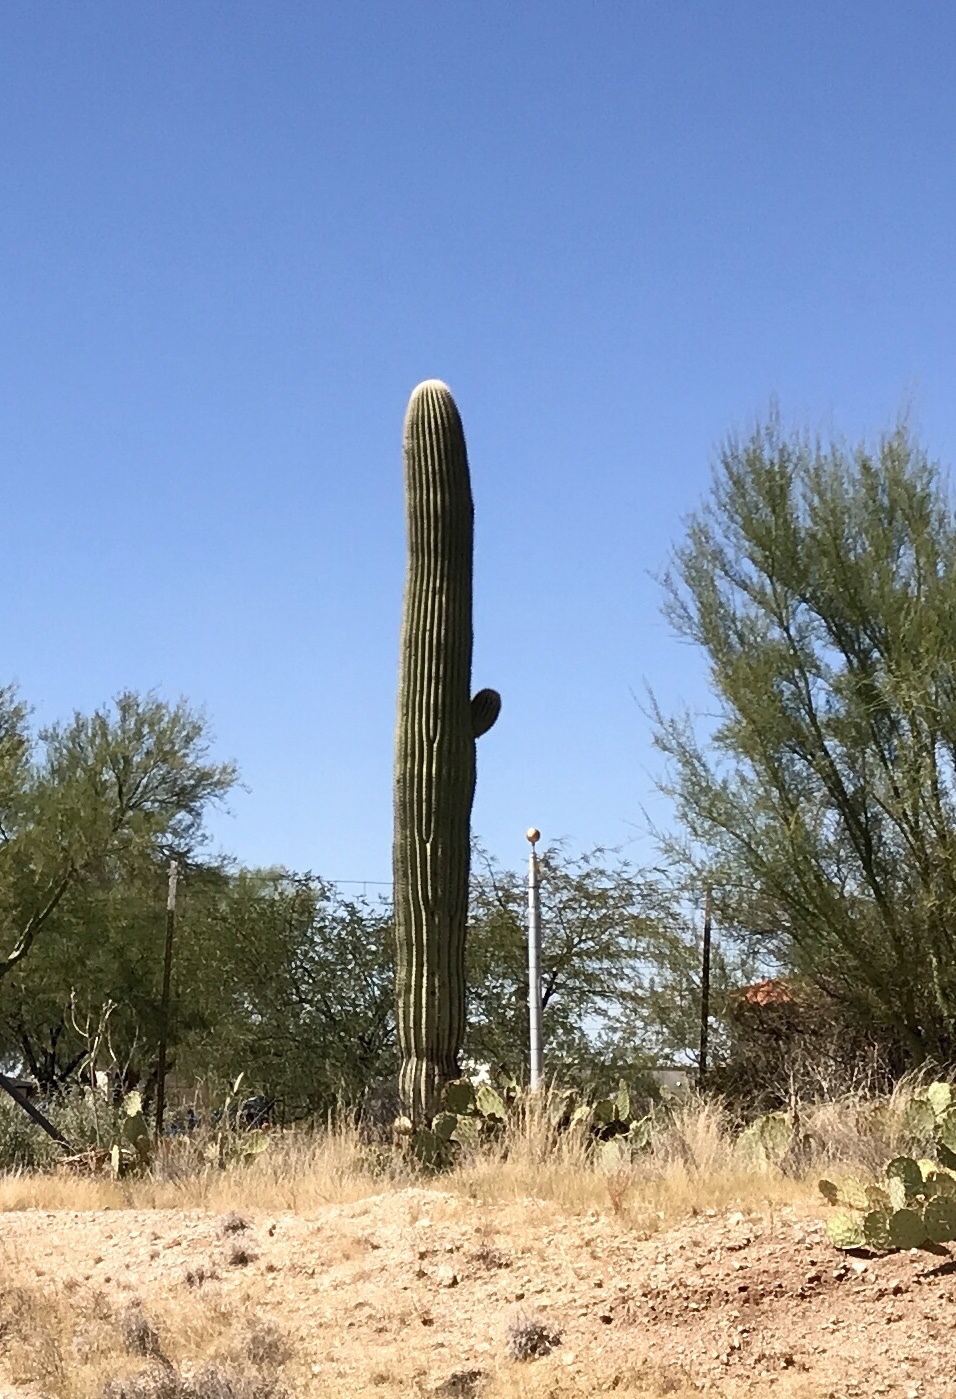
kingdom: Plantae
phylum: Tracheophyta
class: Magnoliopsida
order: Caryophyllales
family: Cactaceae
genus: Carnegiea
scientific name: Carnegiea gigantea
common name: Saguaro
